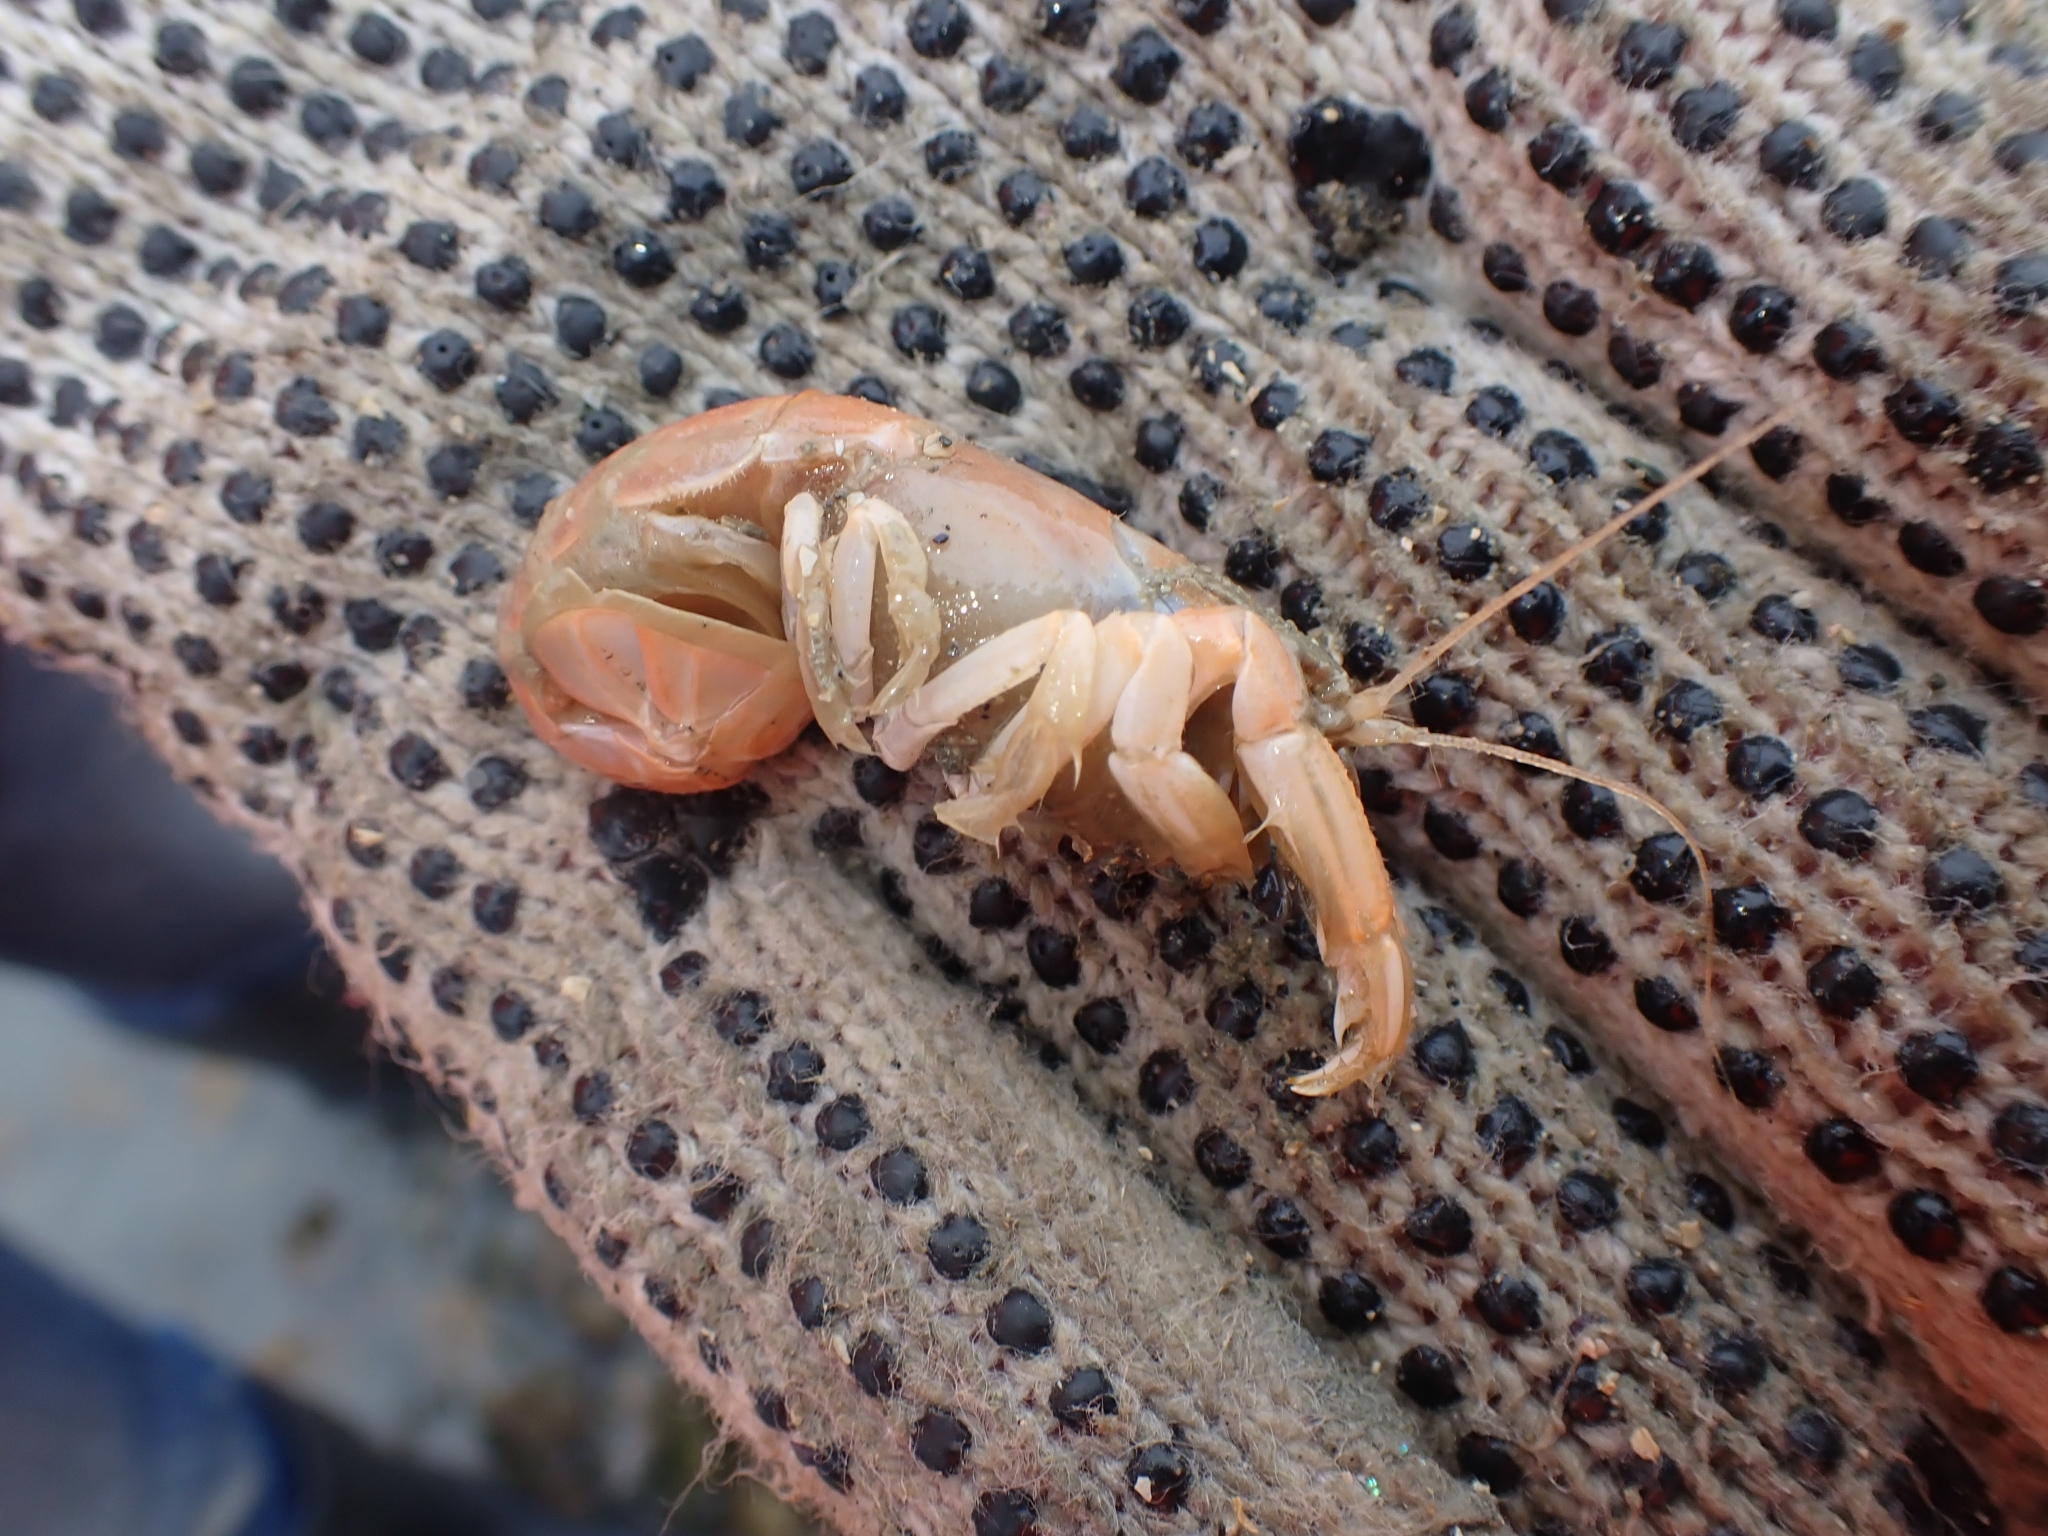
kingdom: Animalia
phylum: Arthropoda
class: Malacostraca
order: Decapoda
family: Upogebiidae
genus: Upogebia
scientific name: Upogebia hirtifrons
